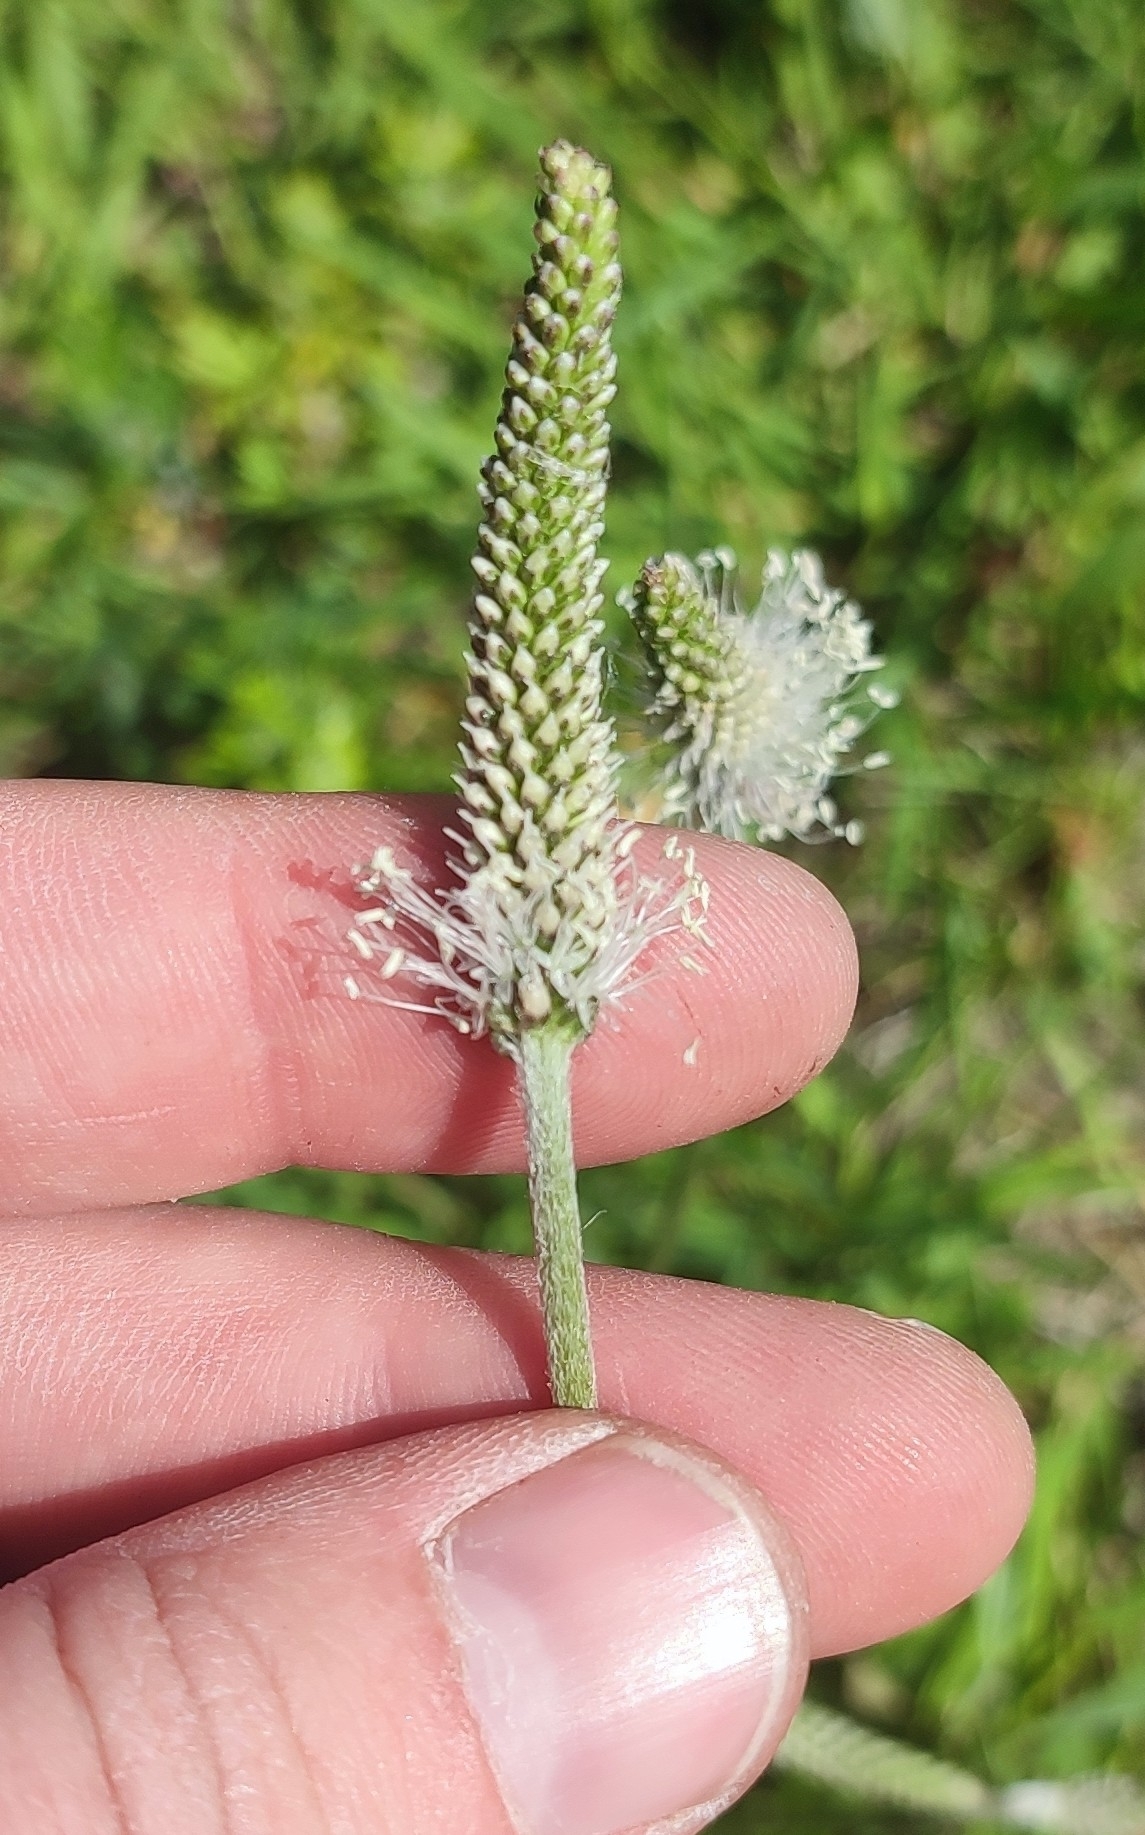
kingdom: Plantae
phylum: Tracheophyta
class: Magnoliopsida
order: Lamiales
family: Plantaginaceae
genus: Plantago
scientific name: Plantago media
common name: Hoary plantain
